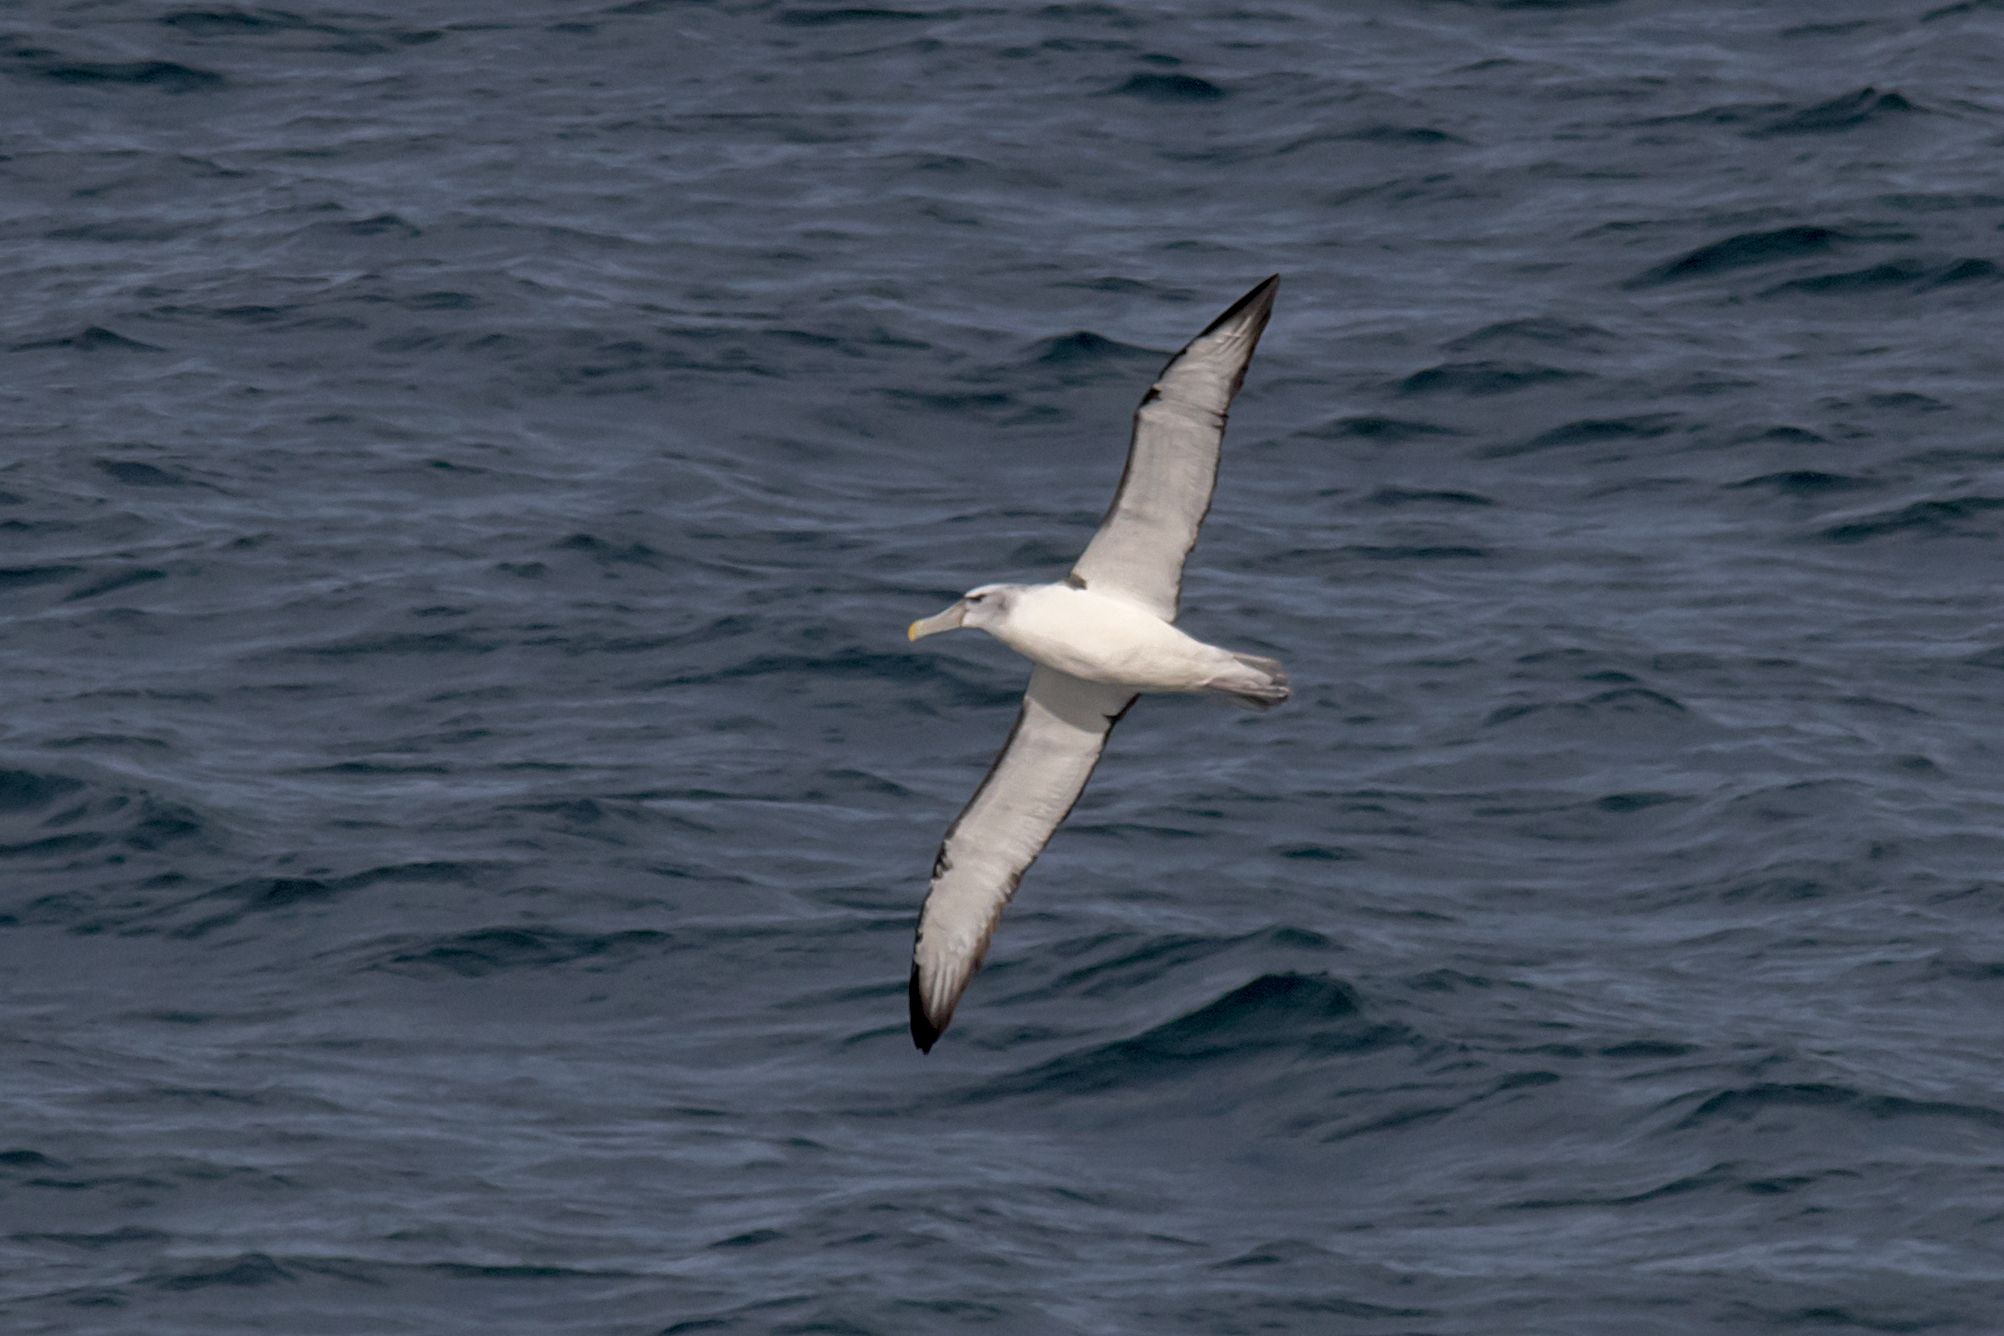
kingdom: Animalia
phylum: Chordata
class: Aves
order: Procellariiformes
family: Diomedeidae
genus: Thalassarche
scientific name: Thalassarche cauta
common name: Shy albatross
